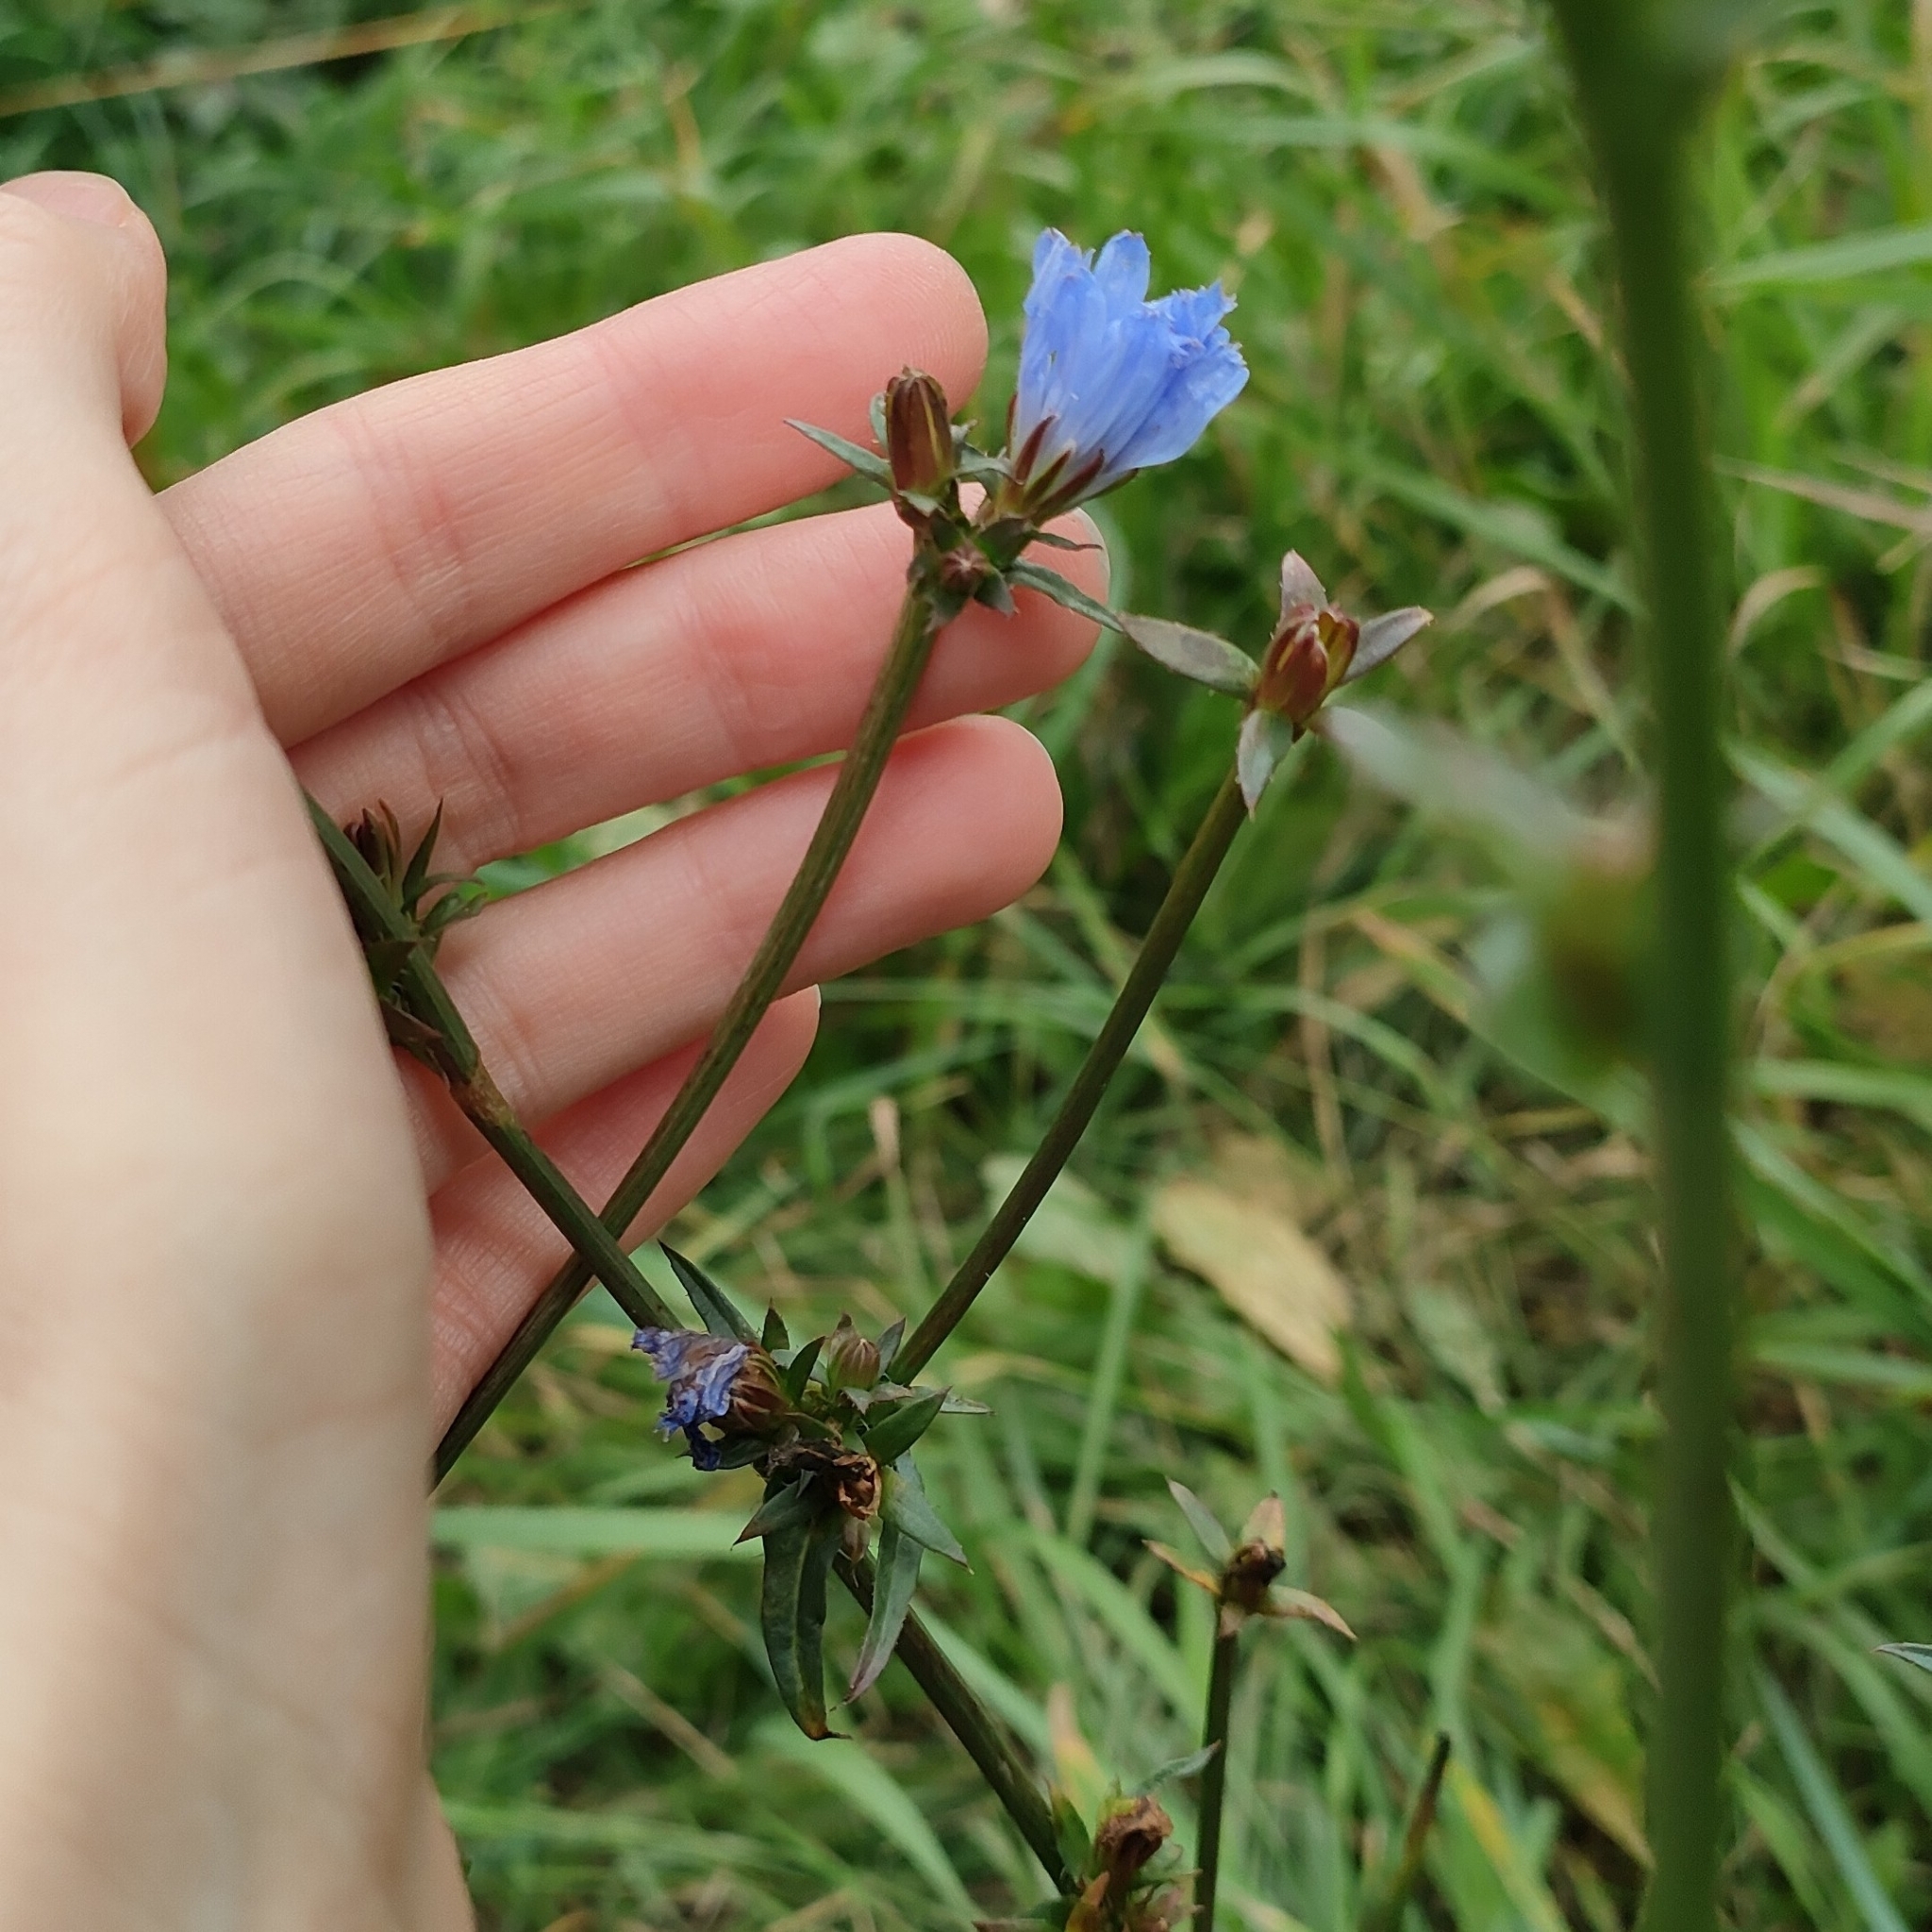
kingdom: Plantae
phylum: Tracheophyta
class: Magnoliopsida
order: Asterales
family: Asteraceae
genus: Cichorium
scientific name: Cichorium intybus
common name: Chicory
